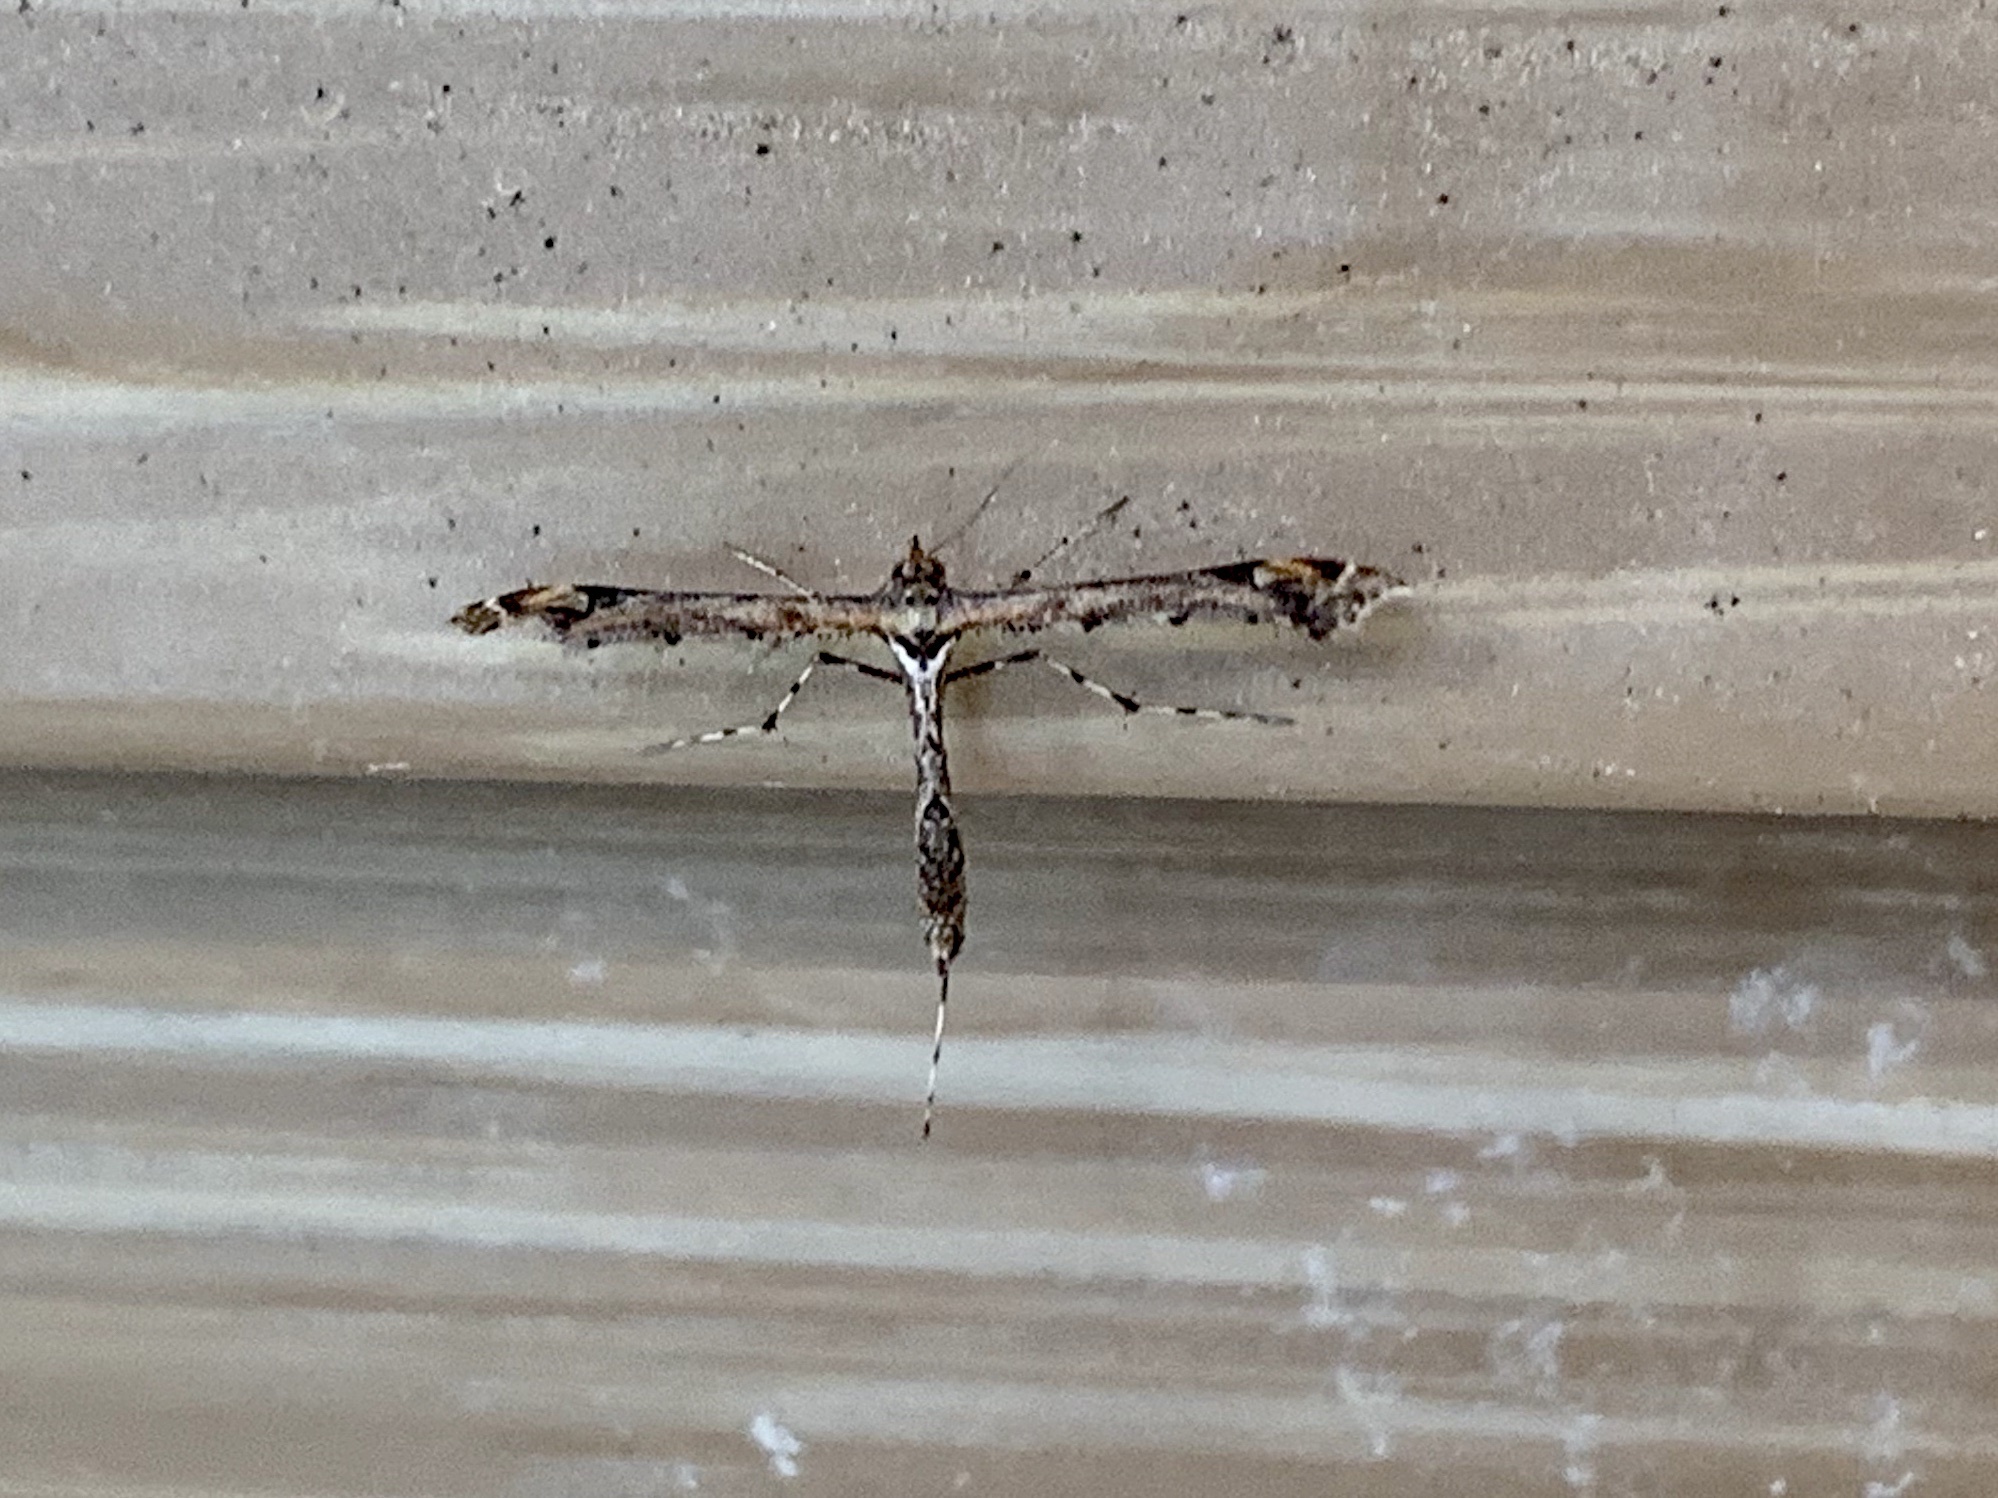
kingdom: Animalia
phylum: Arthropoda
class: Insecta
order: Lepidoptera
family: Pterophoridae
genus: Anstenoptilia
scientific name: Anstenoptilia marmarodactyla
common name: Moth
